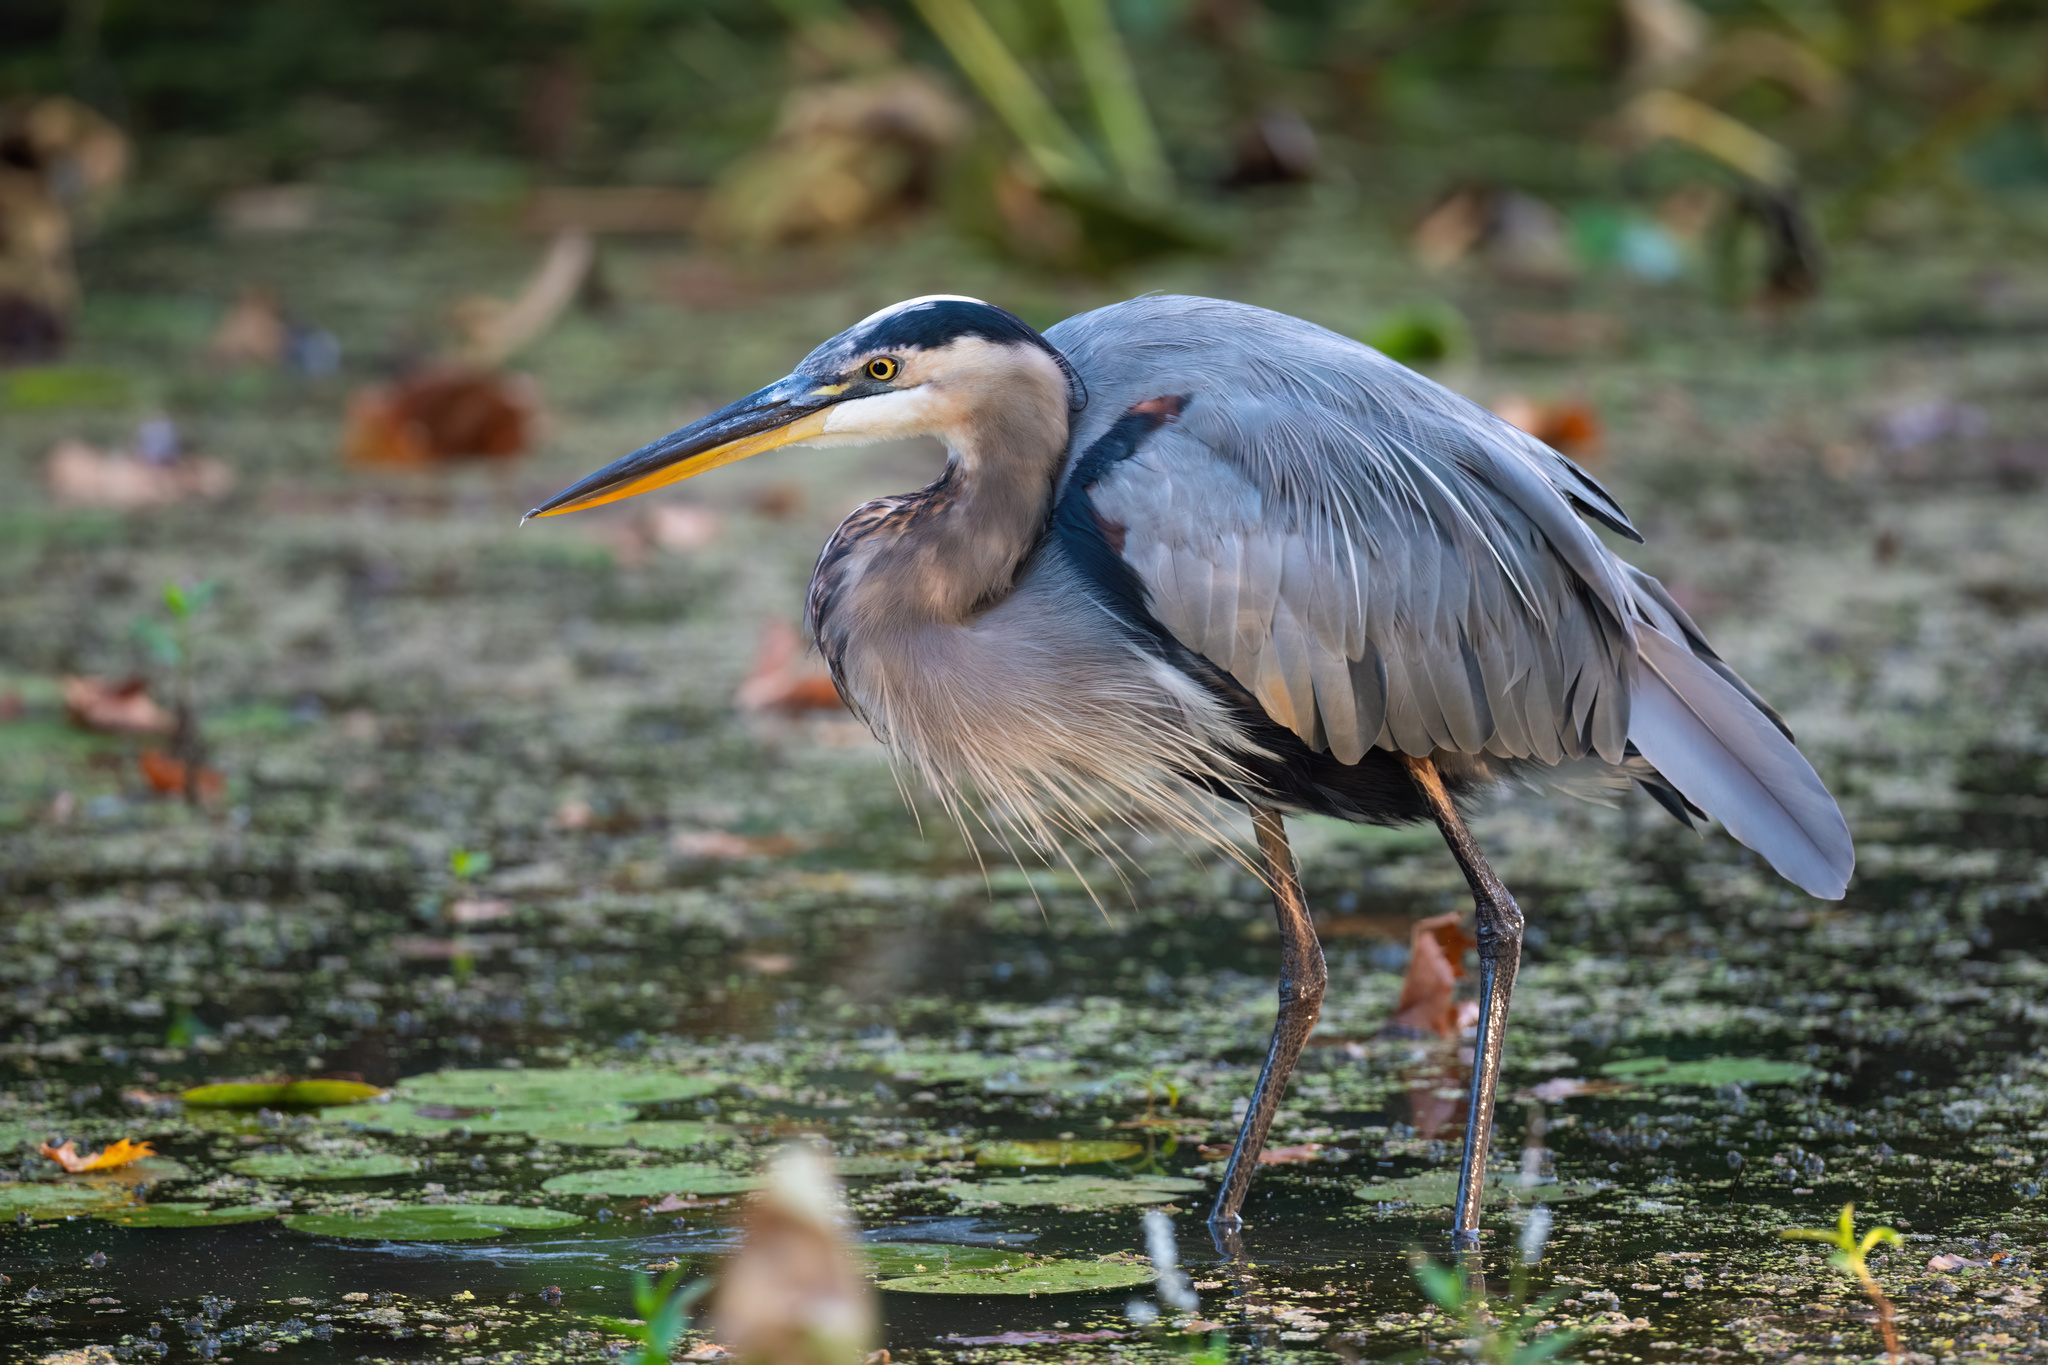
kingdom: Animalia
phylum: Chordata
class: Aves
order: Pelecaniformes
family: Ardeidae
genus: Ardea
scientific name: Ardea herodias
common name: Great blue heron
